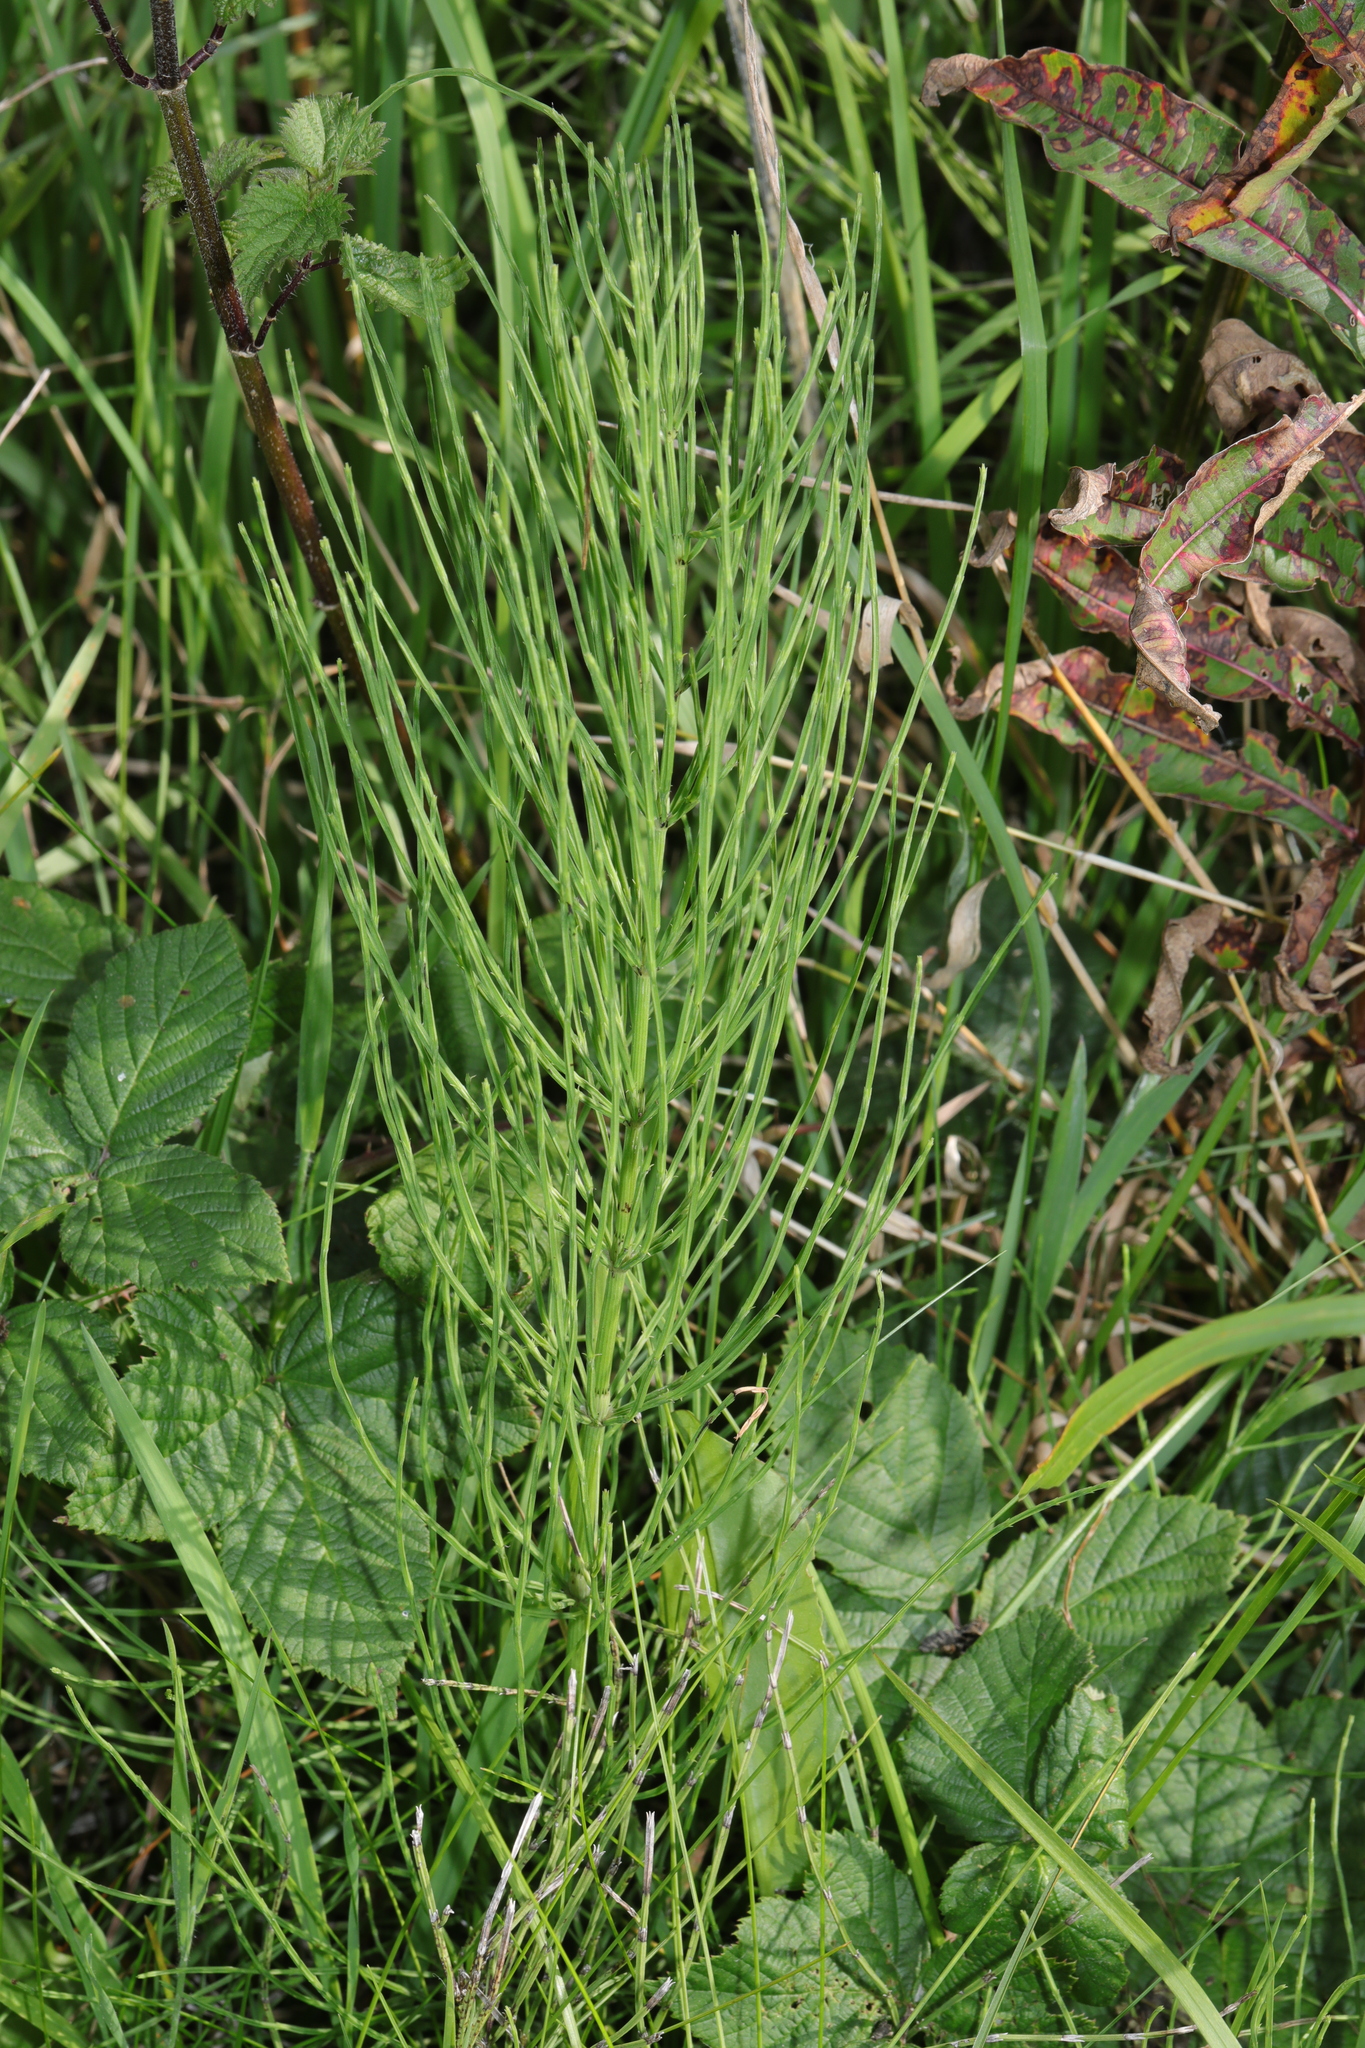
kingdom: Plantae
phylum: Tracheophyta
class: Polypodiopsida
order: Equisetales
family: Equisetaceae
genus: Equisetum
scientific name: Equisetum arvense
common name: Field horsetail
